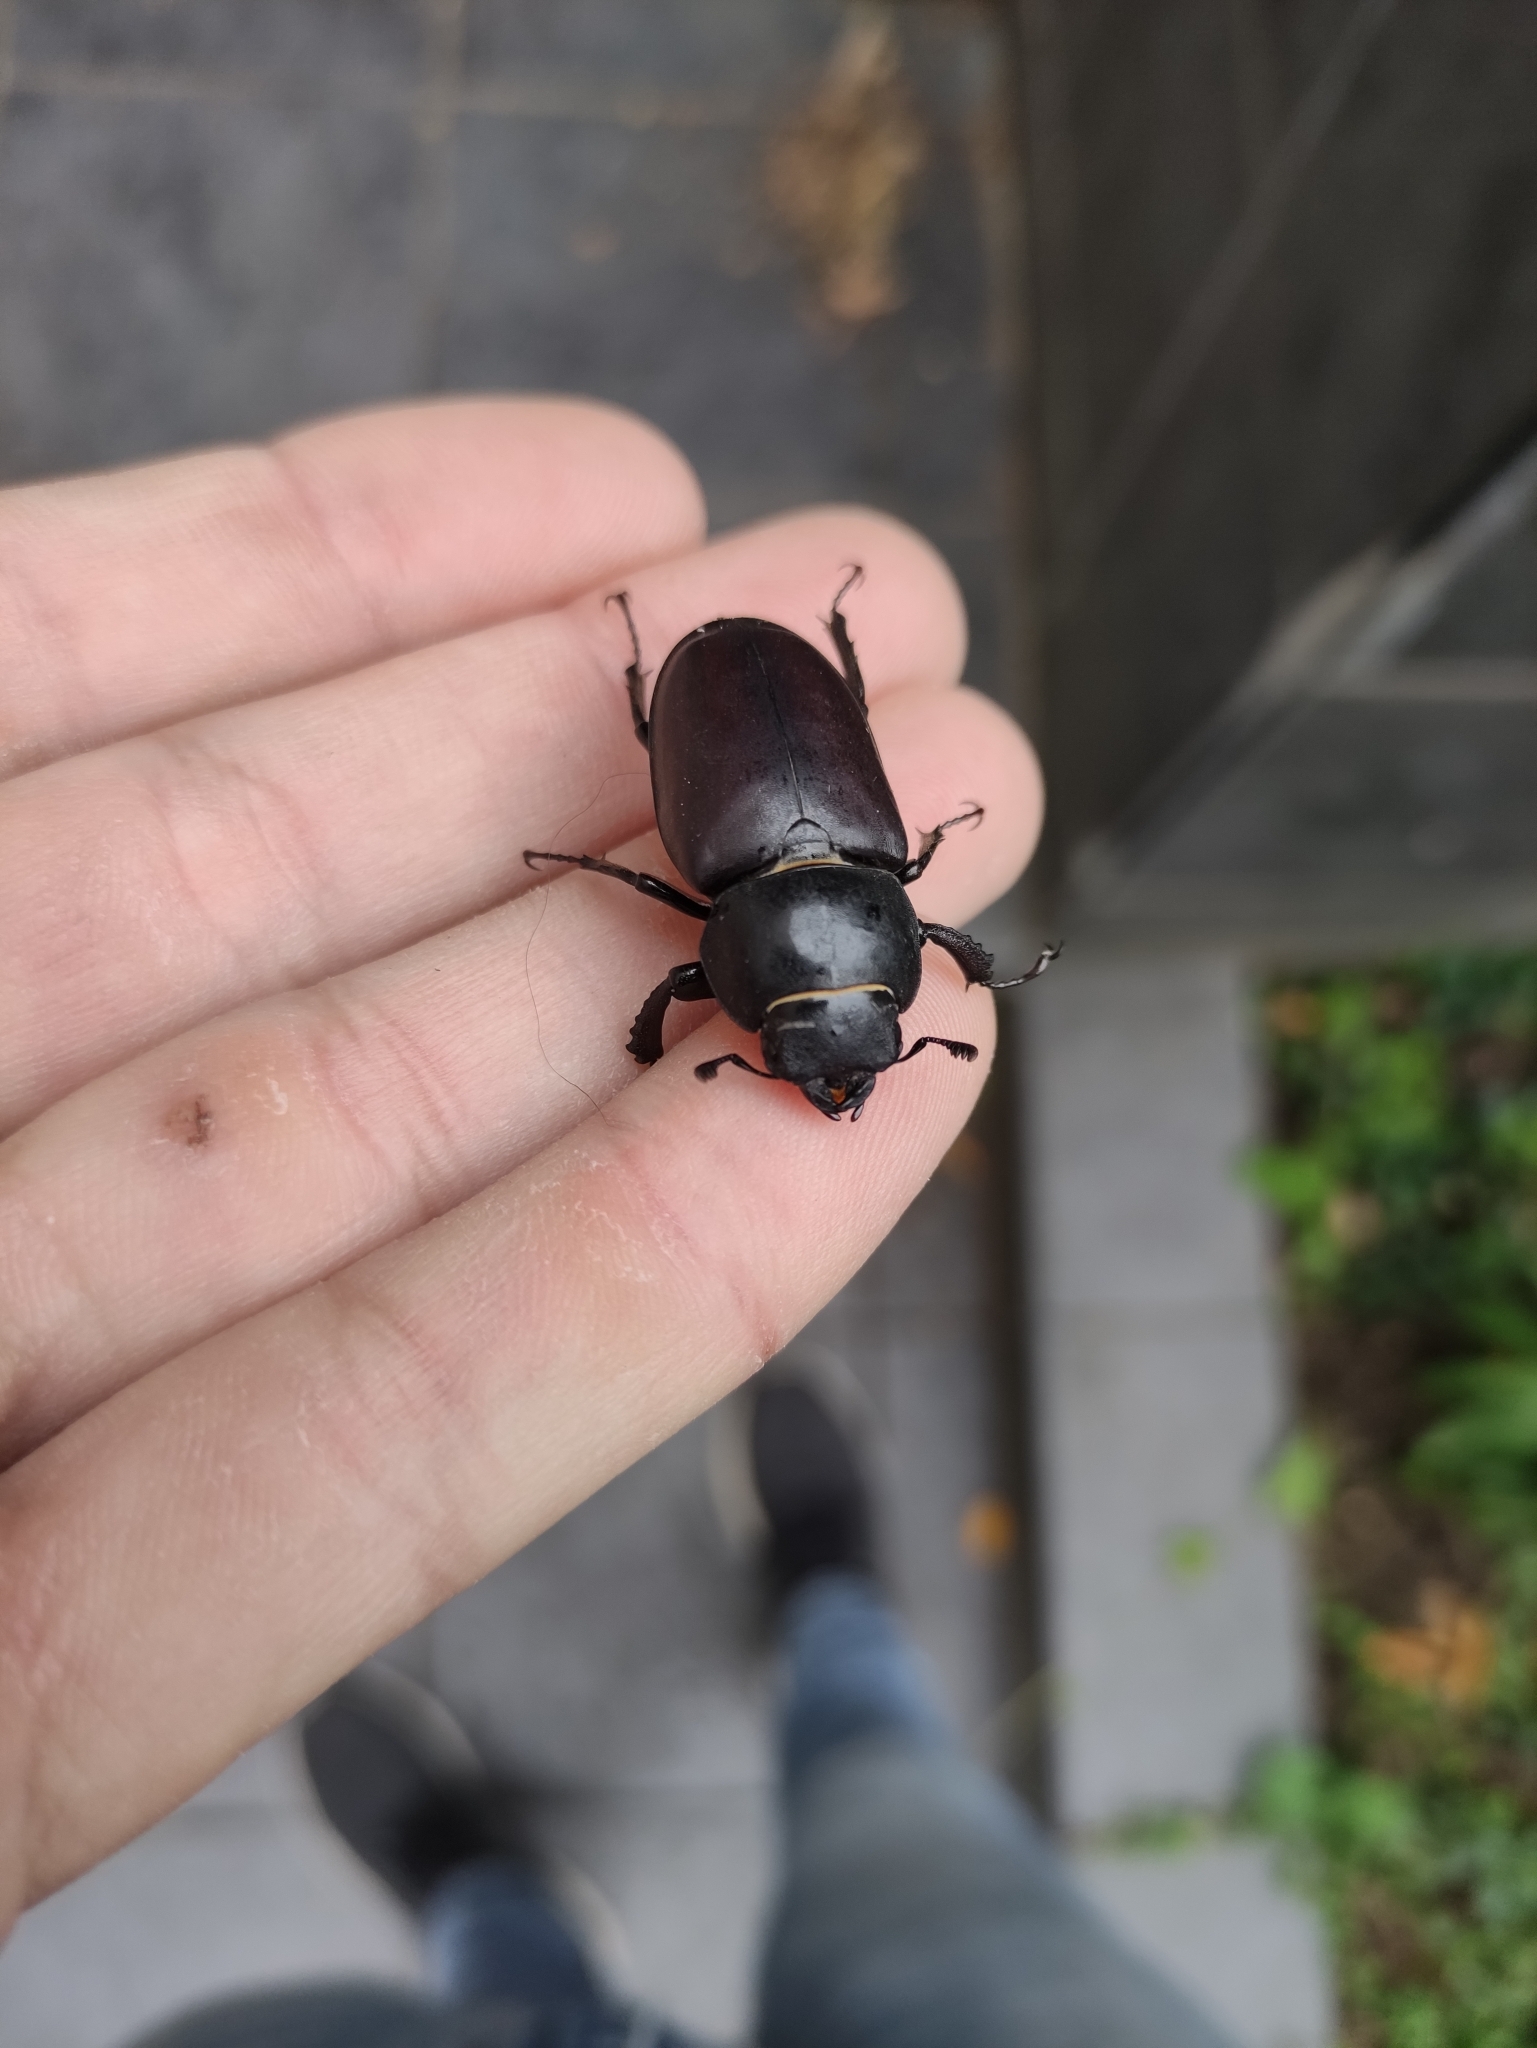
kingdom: Animalia
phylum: Arthropoda
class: Insecta
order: Coleoptera
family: Lucanidae
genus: Lucanus
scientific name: Lucanus cervus
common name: Stag beetle
